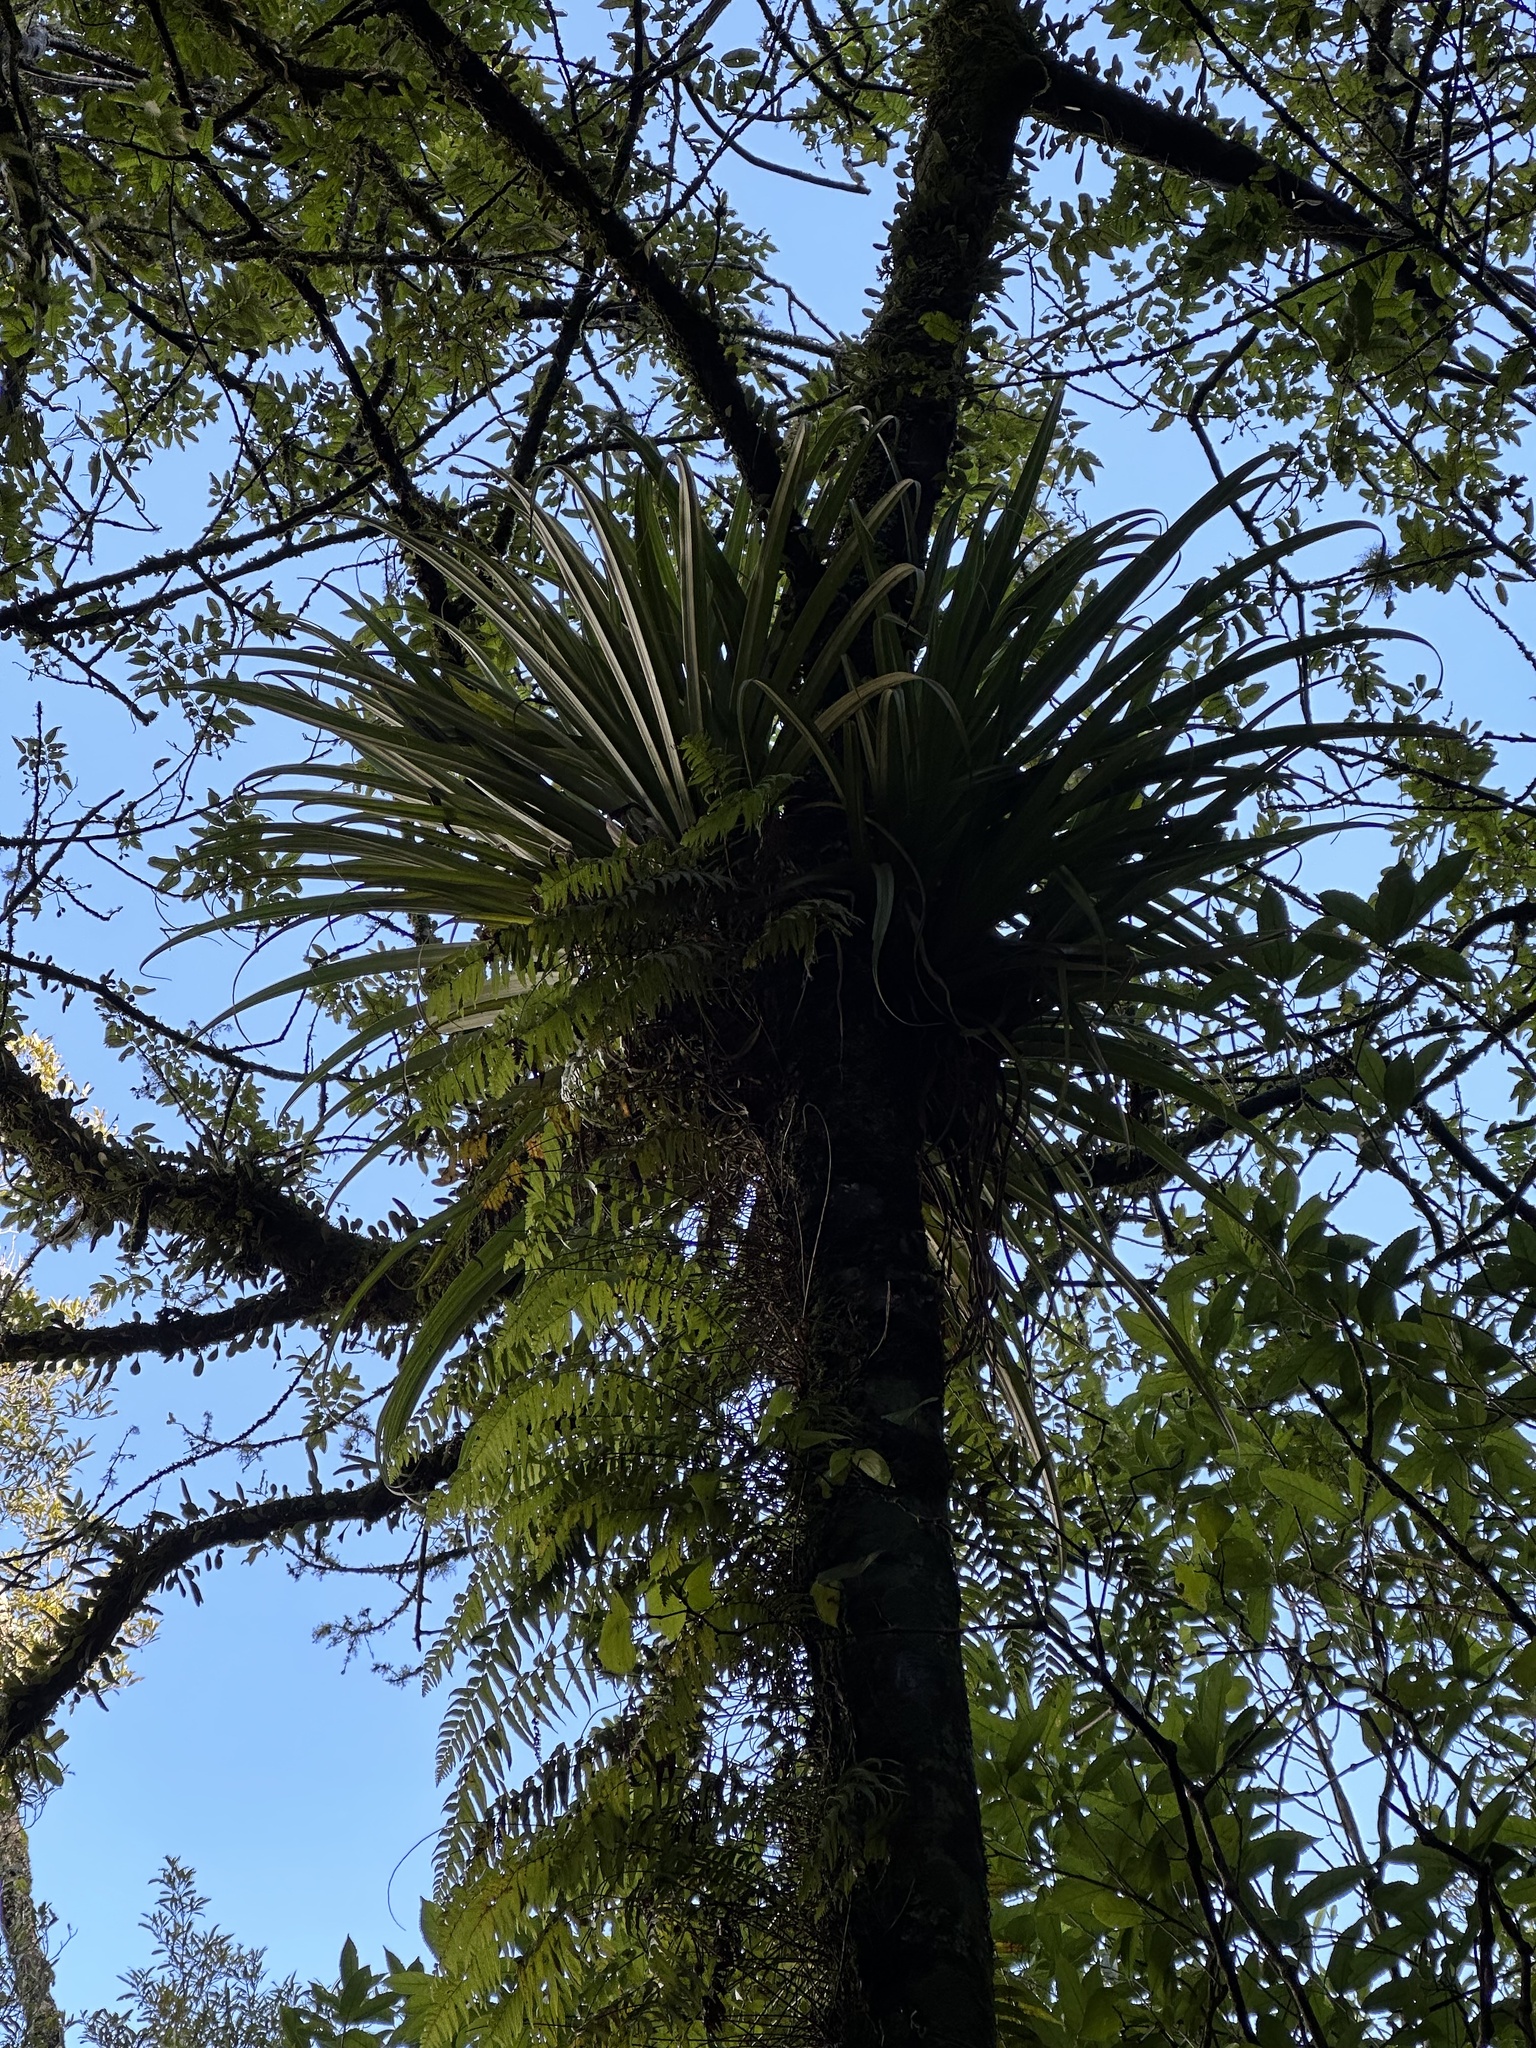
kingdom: Plantae
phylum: Tracheophyta
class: Liliopsida
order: Asparagales
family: Asteliaceae
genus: Astelia
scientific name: Astelia hastata
